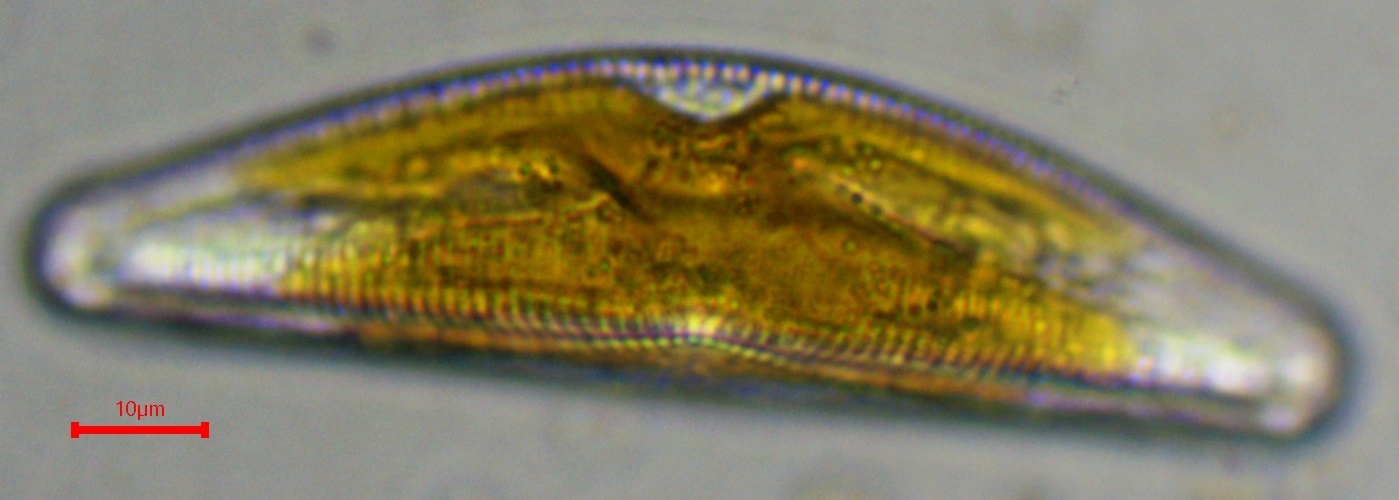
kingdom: Chromista
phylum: Ochrophyta
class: Bacillariophyceae
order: Cymbellales
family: Cymbellaceae
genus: Cymbella
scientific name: Cymbella mesiana
